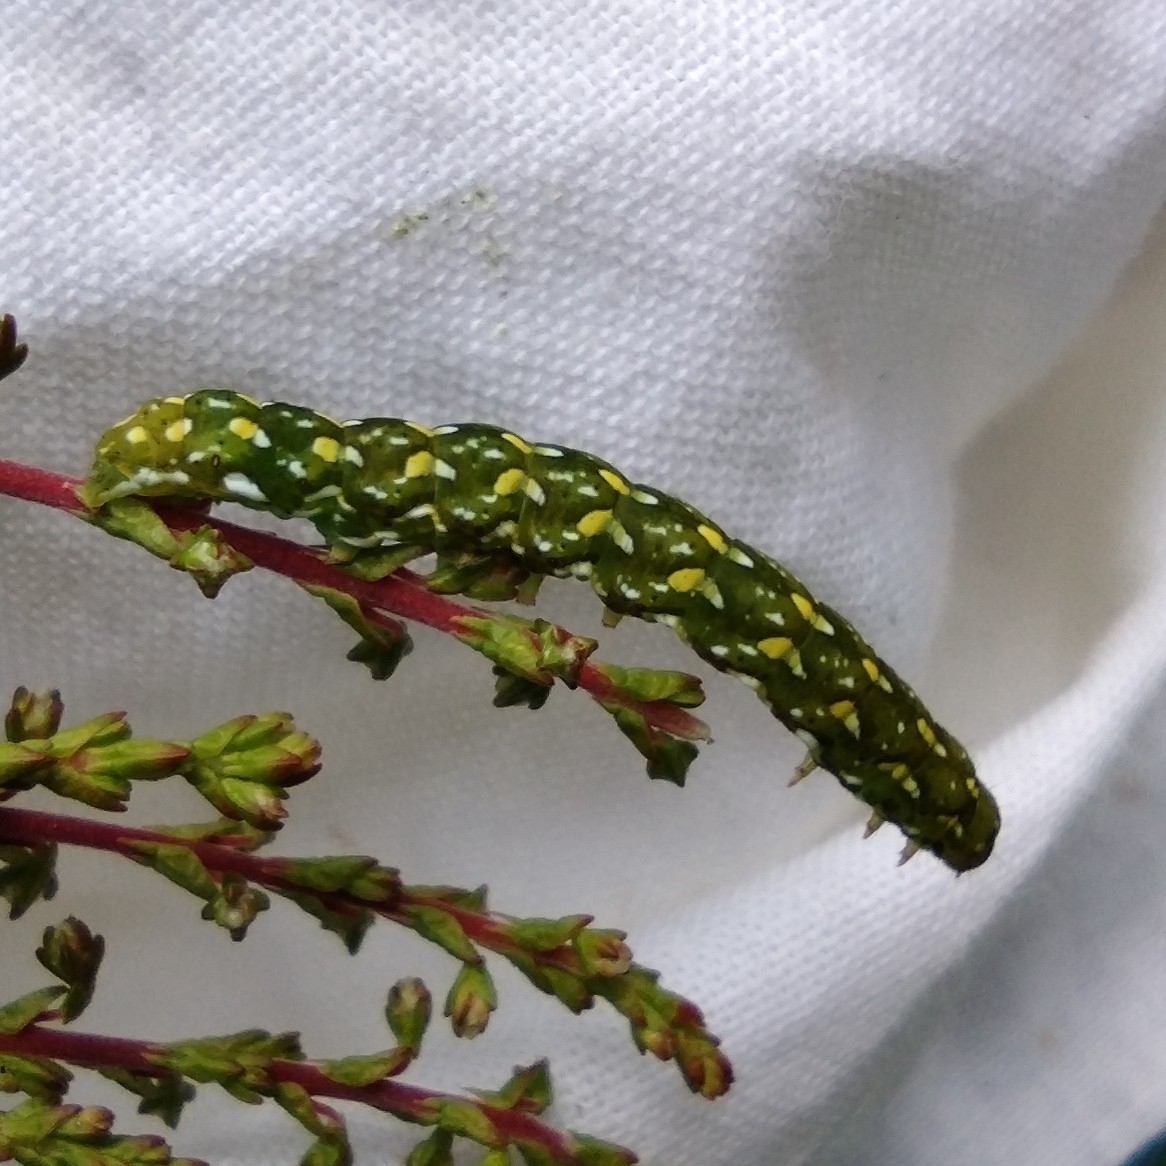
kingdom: Animalia
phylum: Arthropoda
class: Insecta
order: Lepidoptera
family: Noctuidae
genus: Anarta
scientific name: Anarta myrtilli
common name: Beautiful yellow underwing
